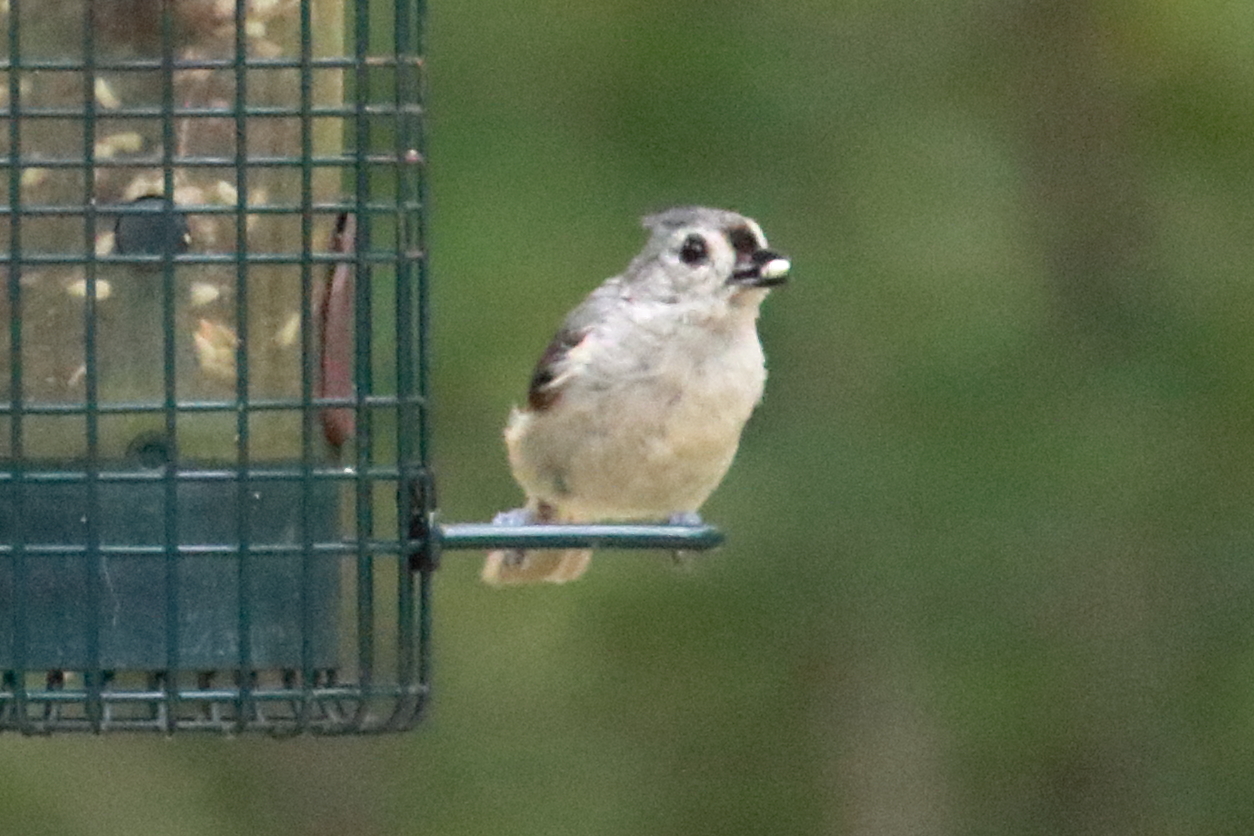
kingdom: Animalia
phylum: Chordata
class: Aves
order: Passeriformes
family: Paridae
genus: Baeolophus
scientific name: Baeolophus bicolor
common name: Tufted titmouse
